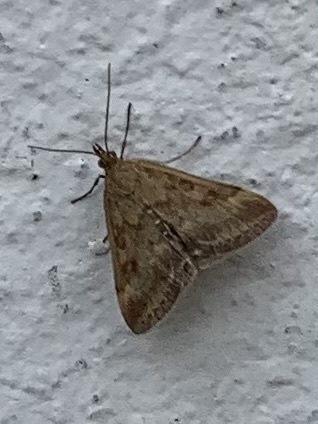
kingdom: Animalia
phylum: Arthropoda
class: Insecta
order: Lepidoptera
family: Crambidae
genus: Pyrausta
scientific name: Pyrausta despicata
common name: Straw-barred pearl
